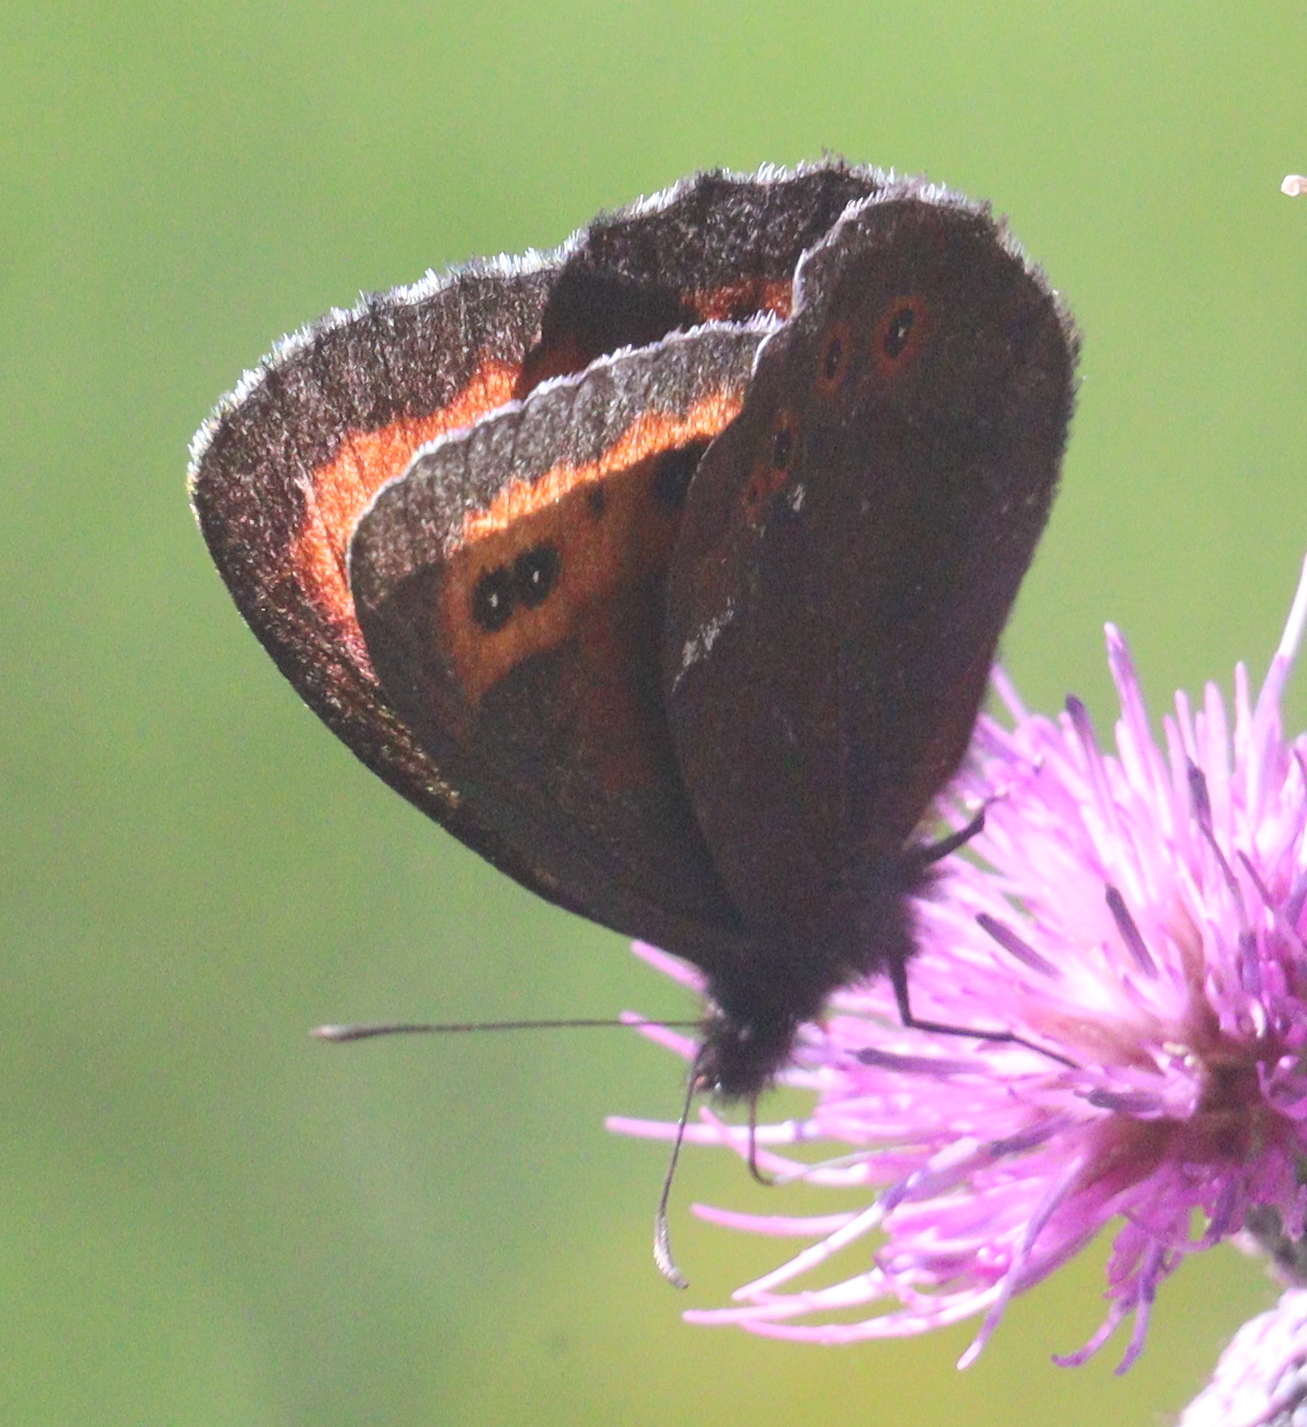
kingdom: Animalia
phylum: Arthropoda
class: Insecta
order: Lepidoptera
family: Nymphalidae
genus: Erebia
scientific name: Erebia ligea
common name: Arran brown
